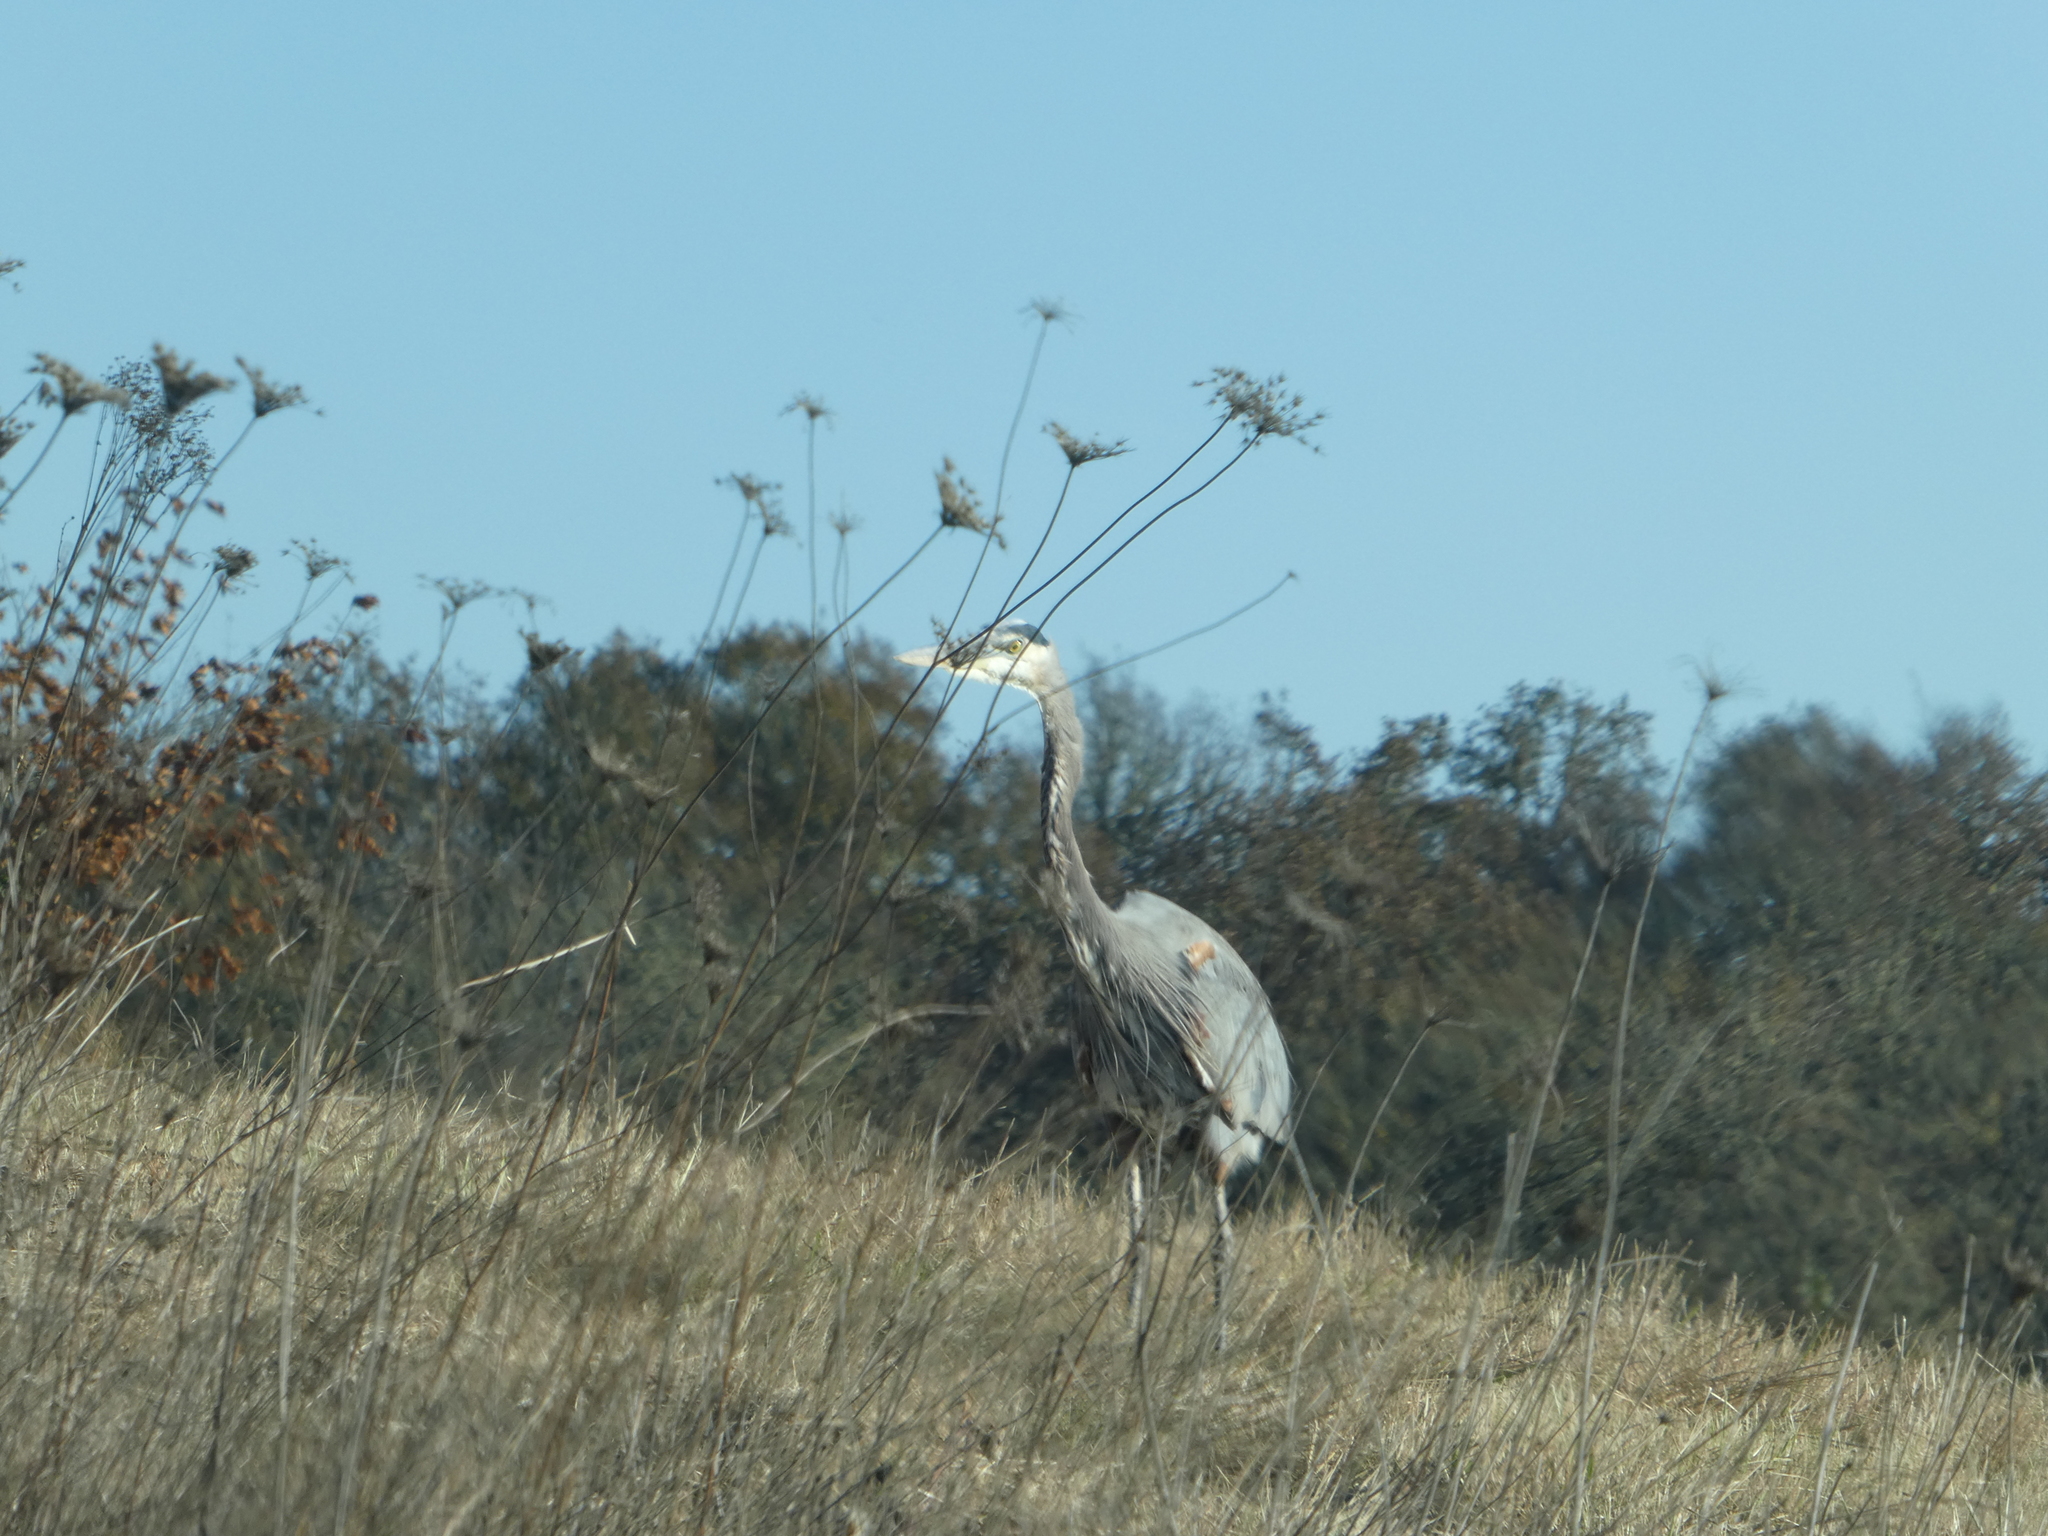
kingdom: Animalia
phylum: Chordata
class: Aves
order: Pelecaniformes
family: Ardeidae
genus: Ardea
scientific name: Ardea herodias
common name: Great blue heron
